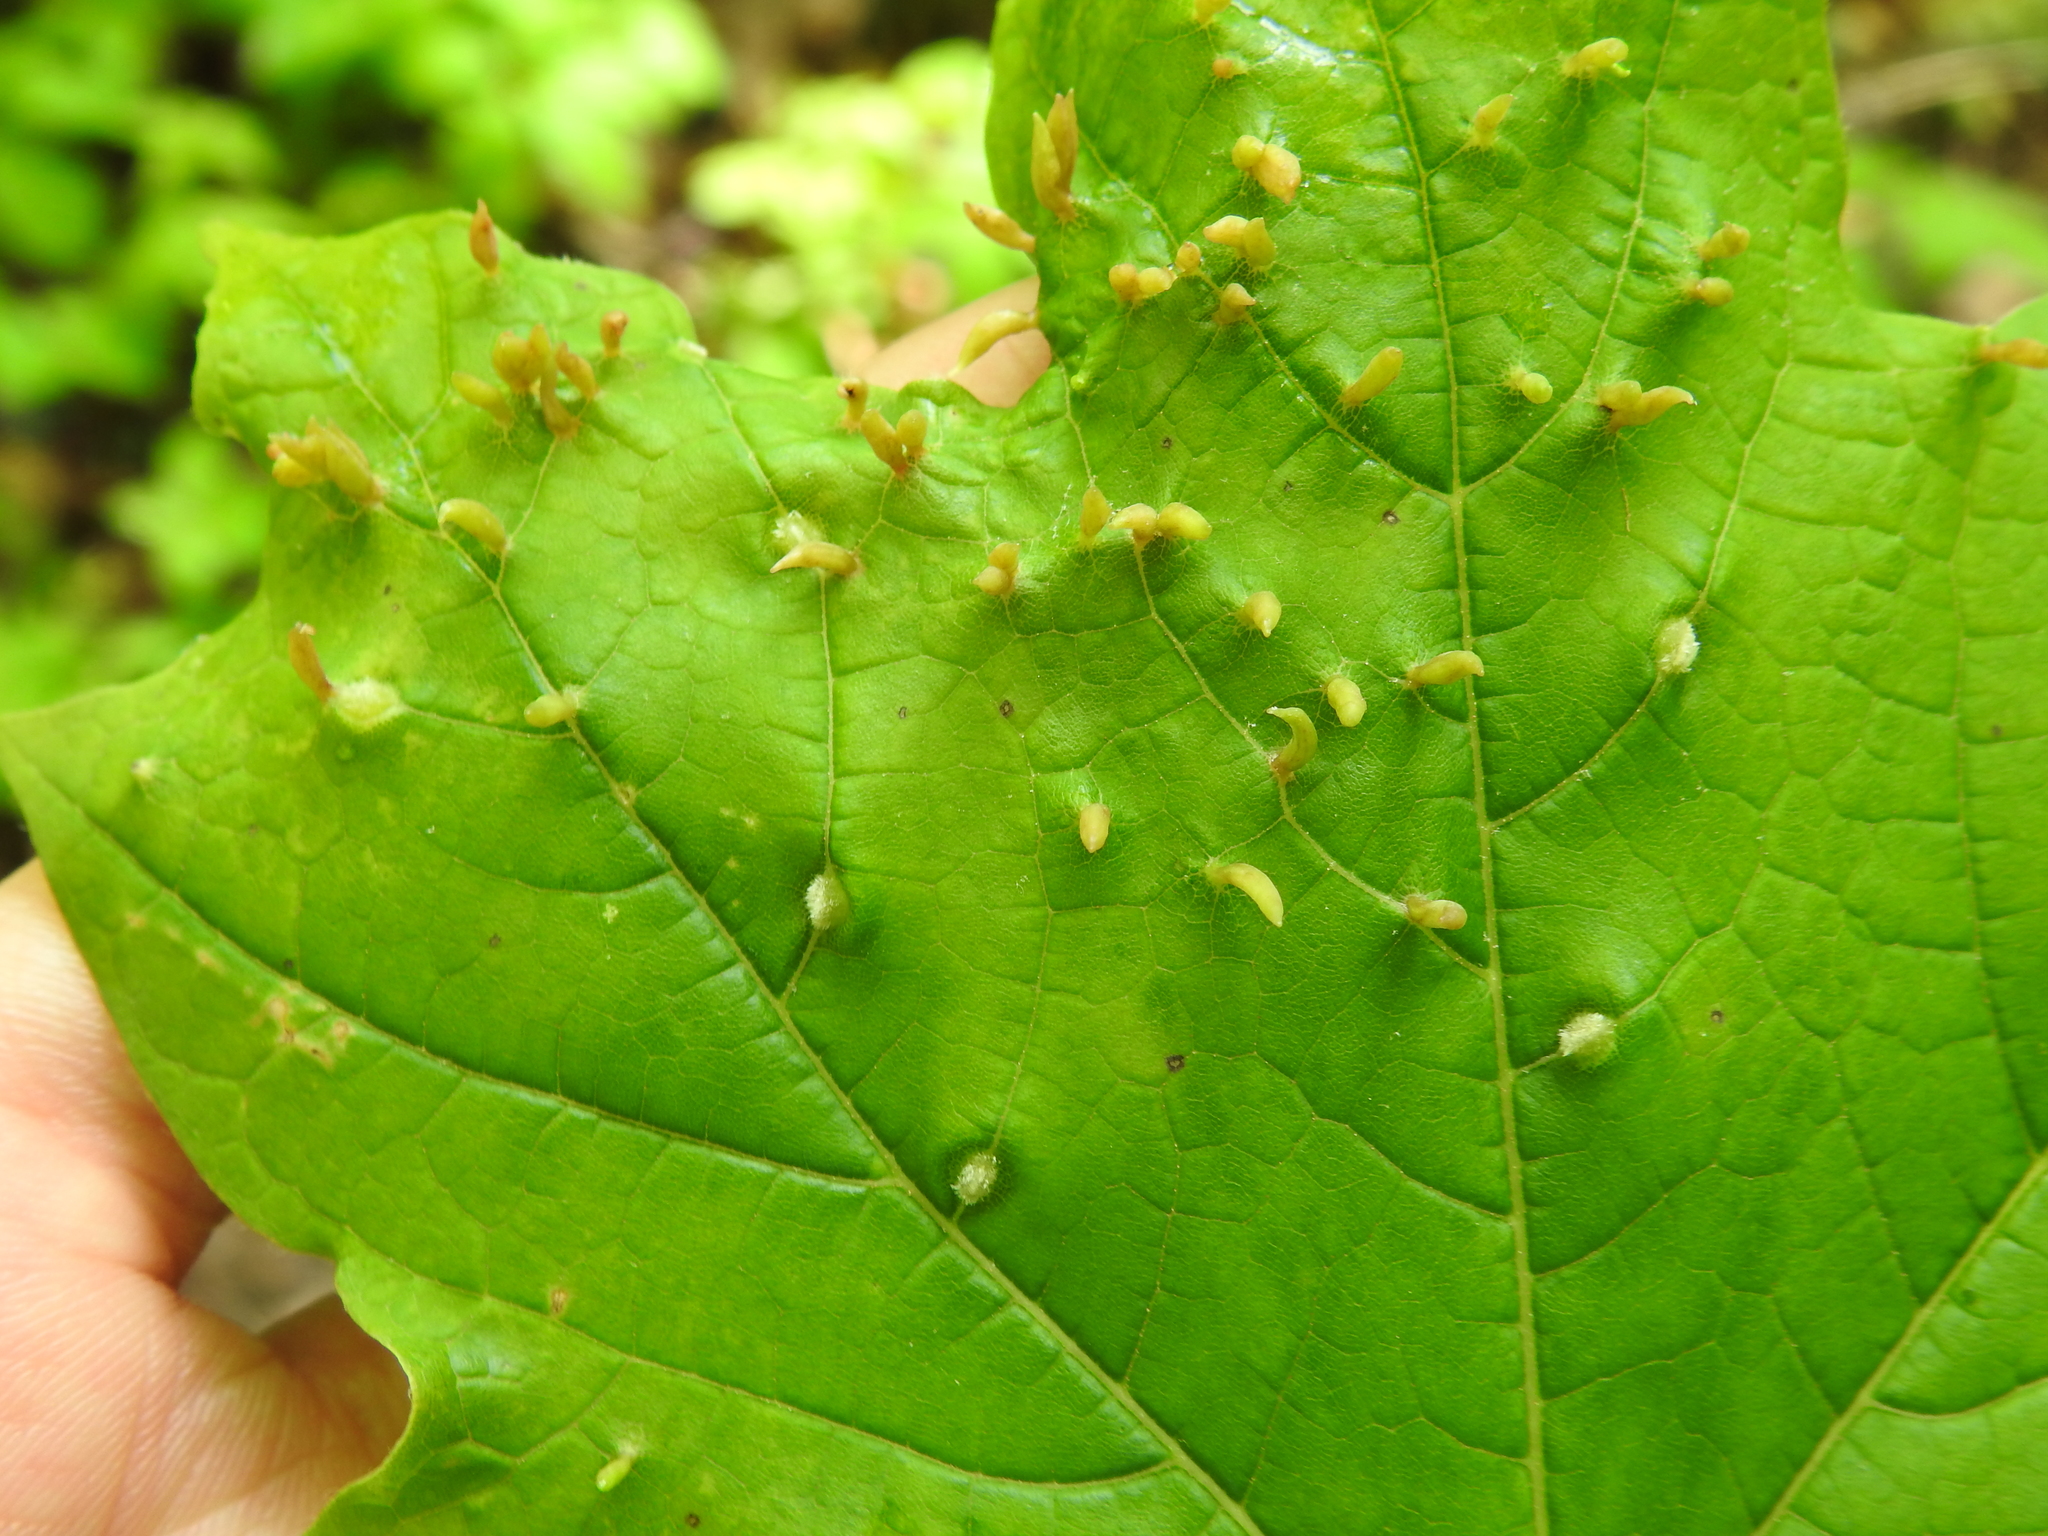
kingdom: Animalia
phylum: Arthropoda
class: Arachnida
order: Trombidiformes
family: Eriophyidae
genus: Vasates
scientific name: Vasates aceriscrumena
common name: Maple spindle gall mite
